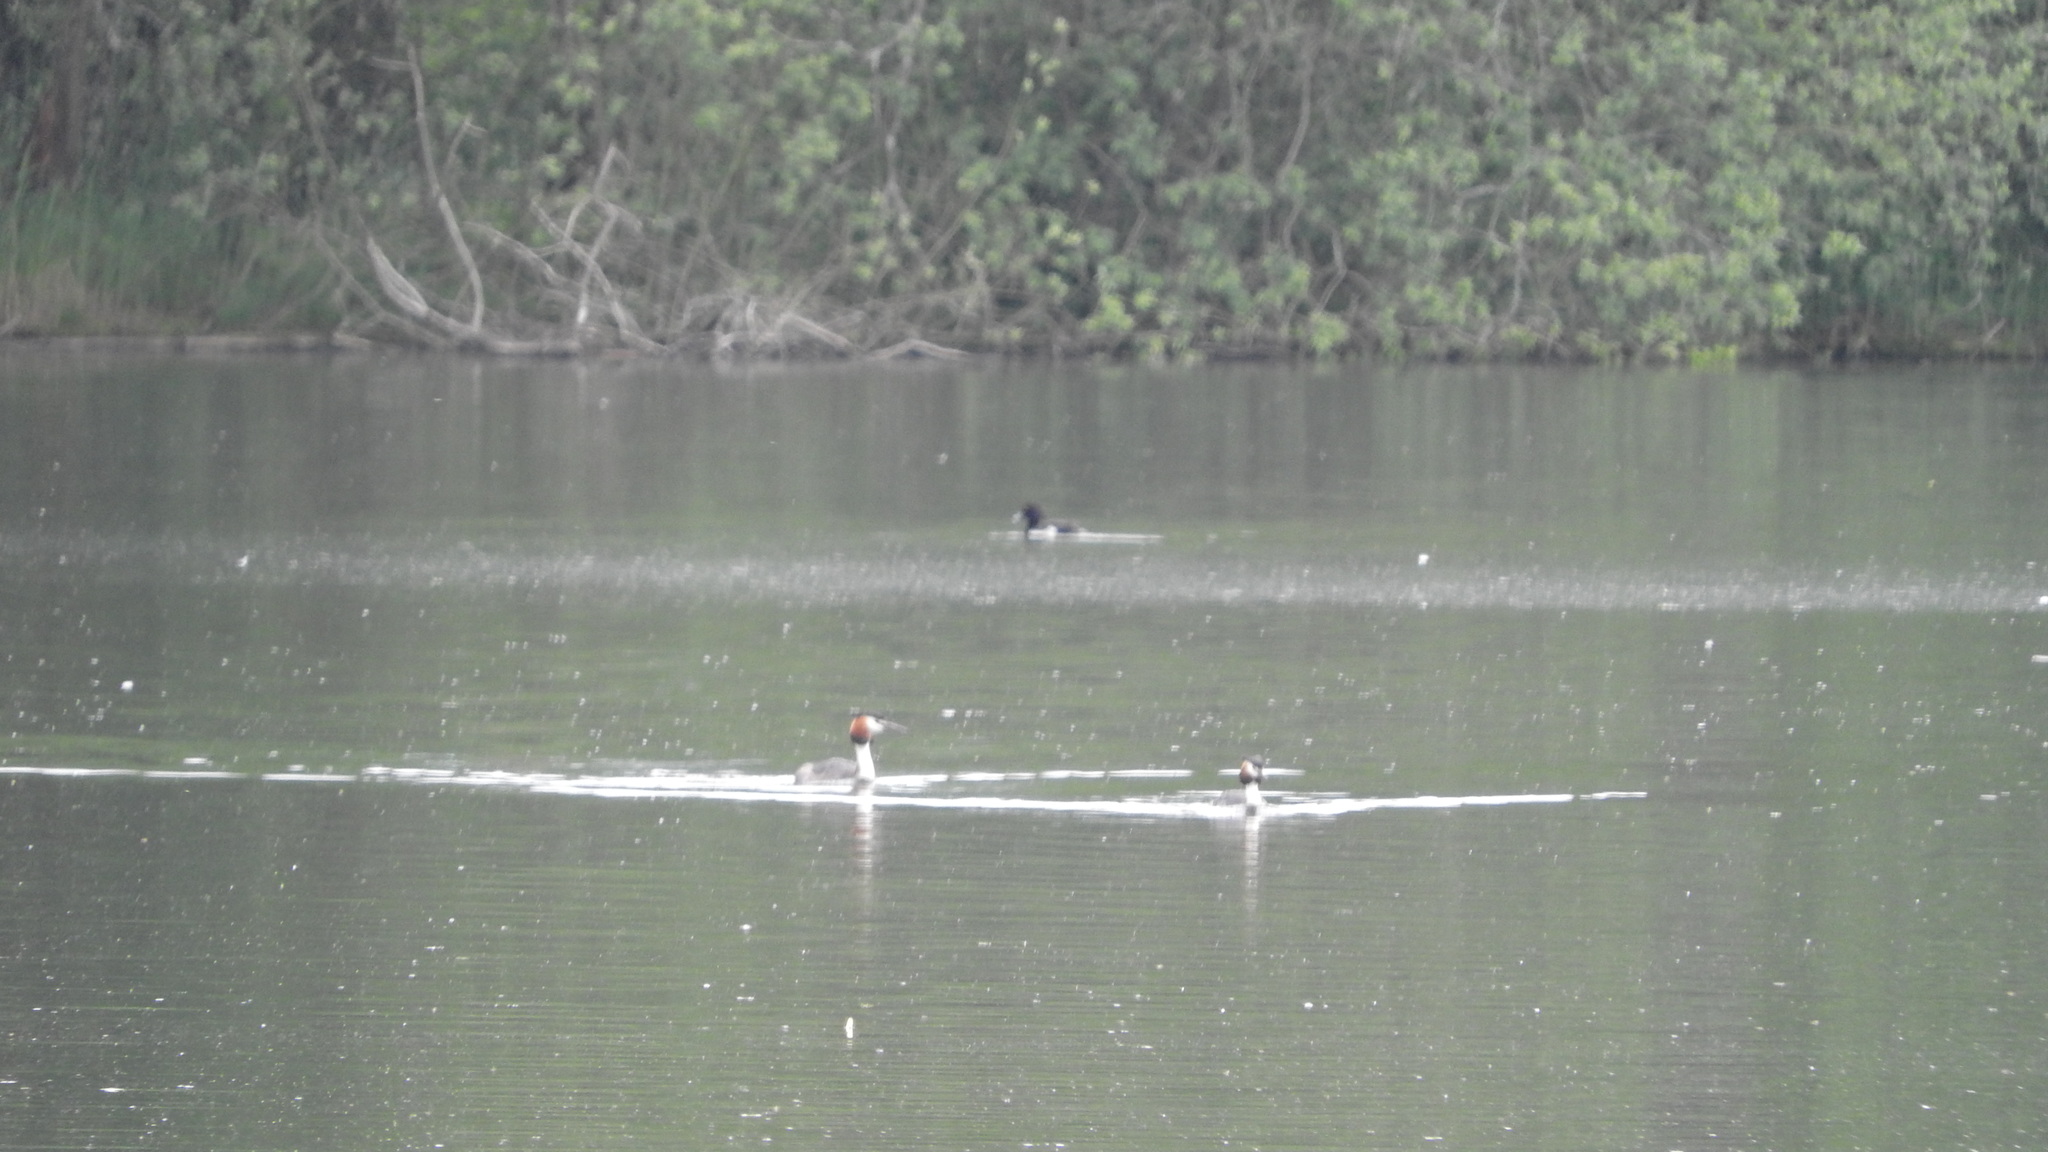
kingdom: Animalia
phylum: Chordata
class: Aves
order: Podicipediformes
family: Podicipedidae
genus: Podiceps
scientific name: Podiceps cristatus
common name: Great crested grebe
